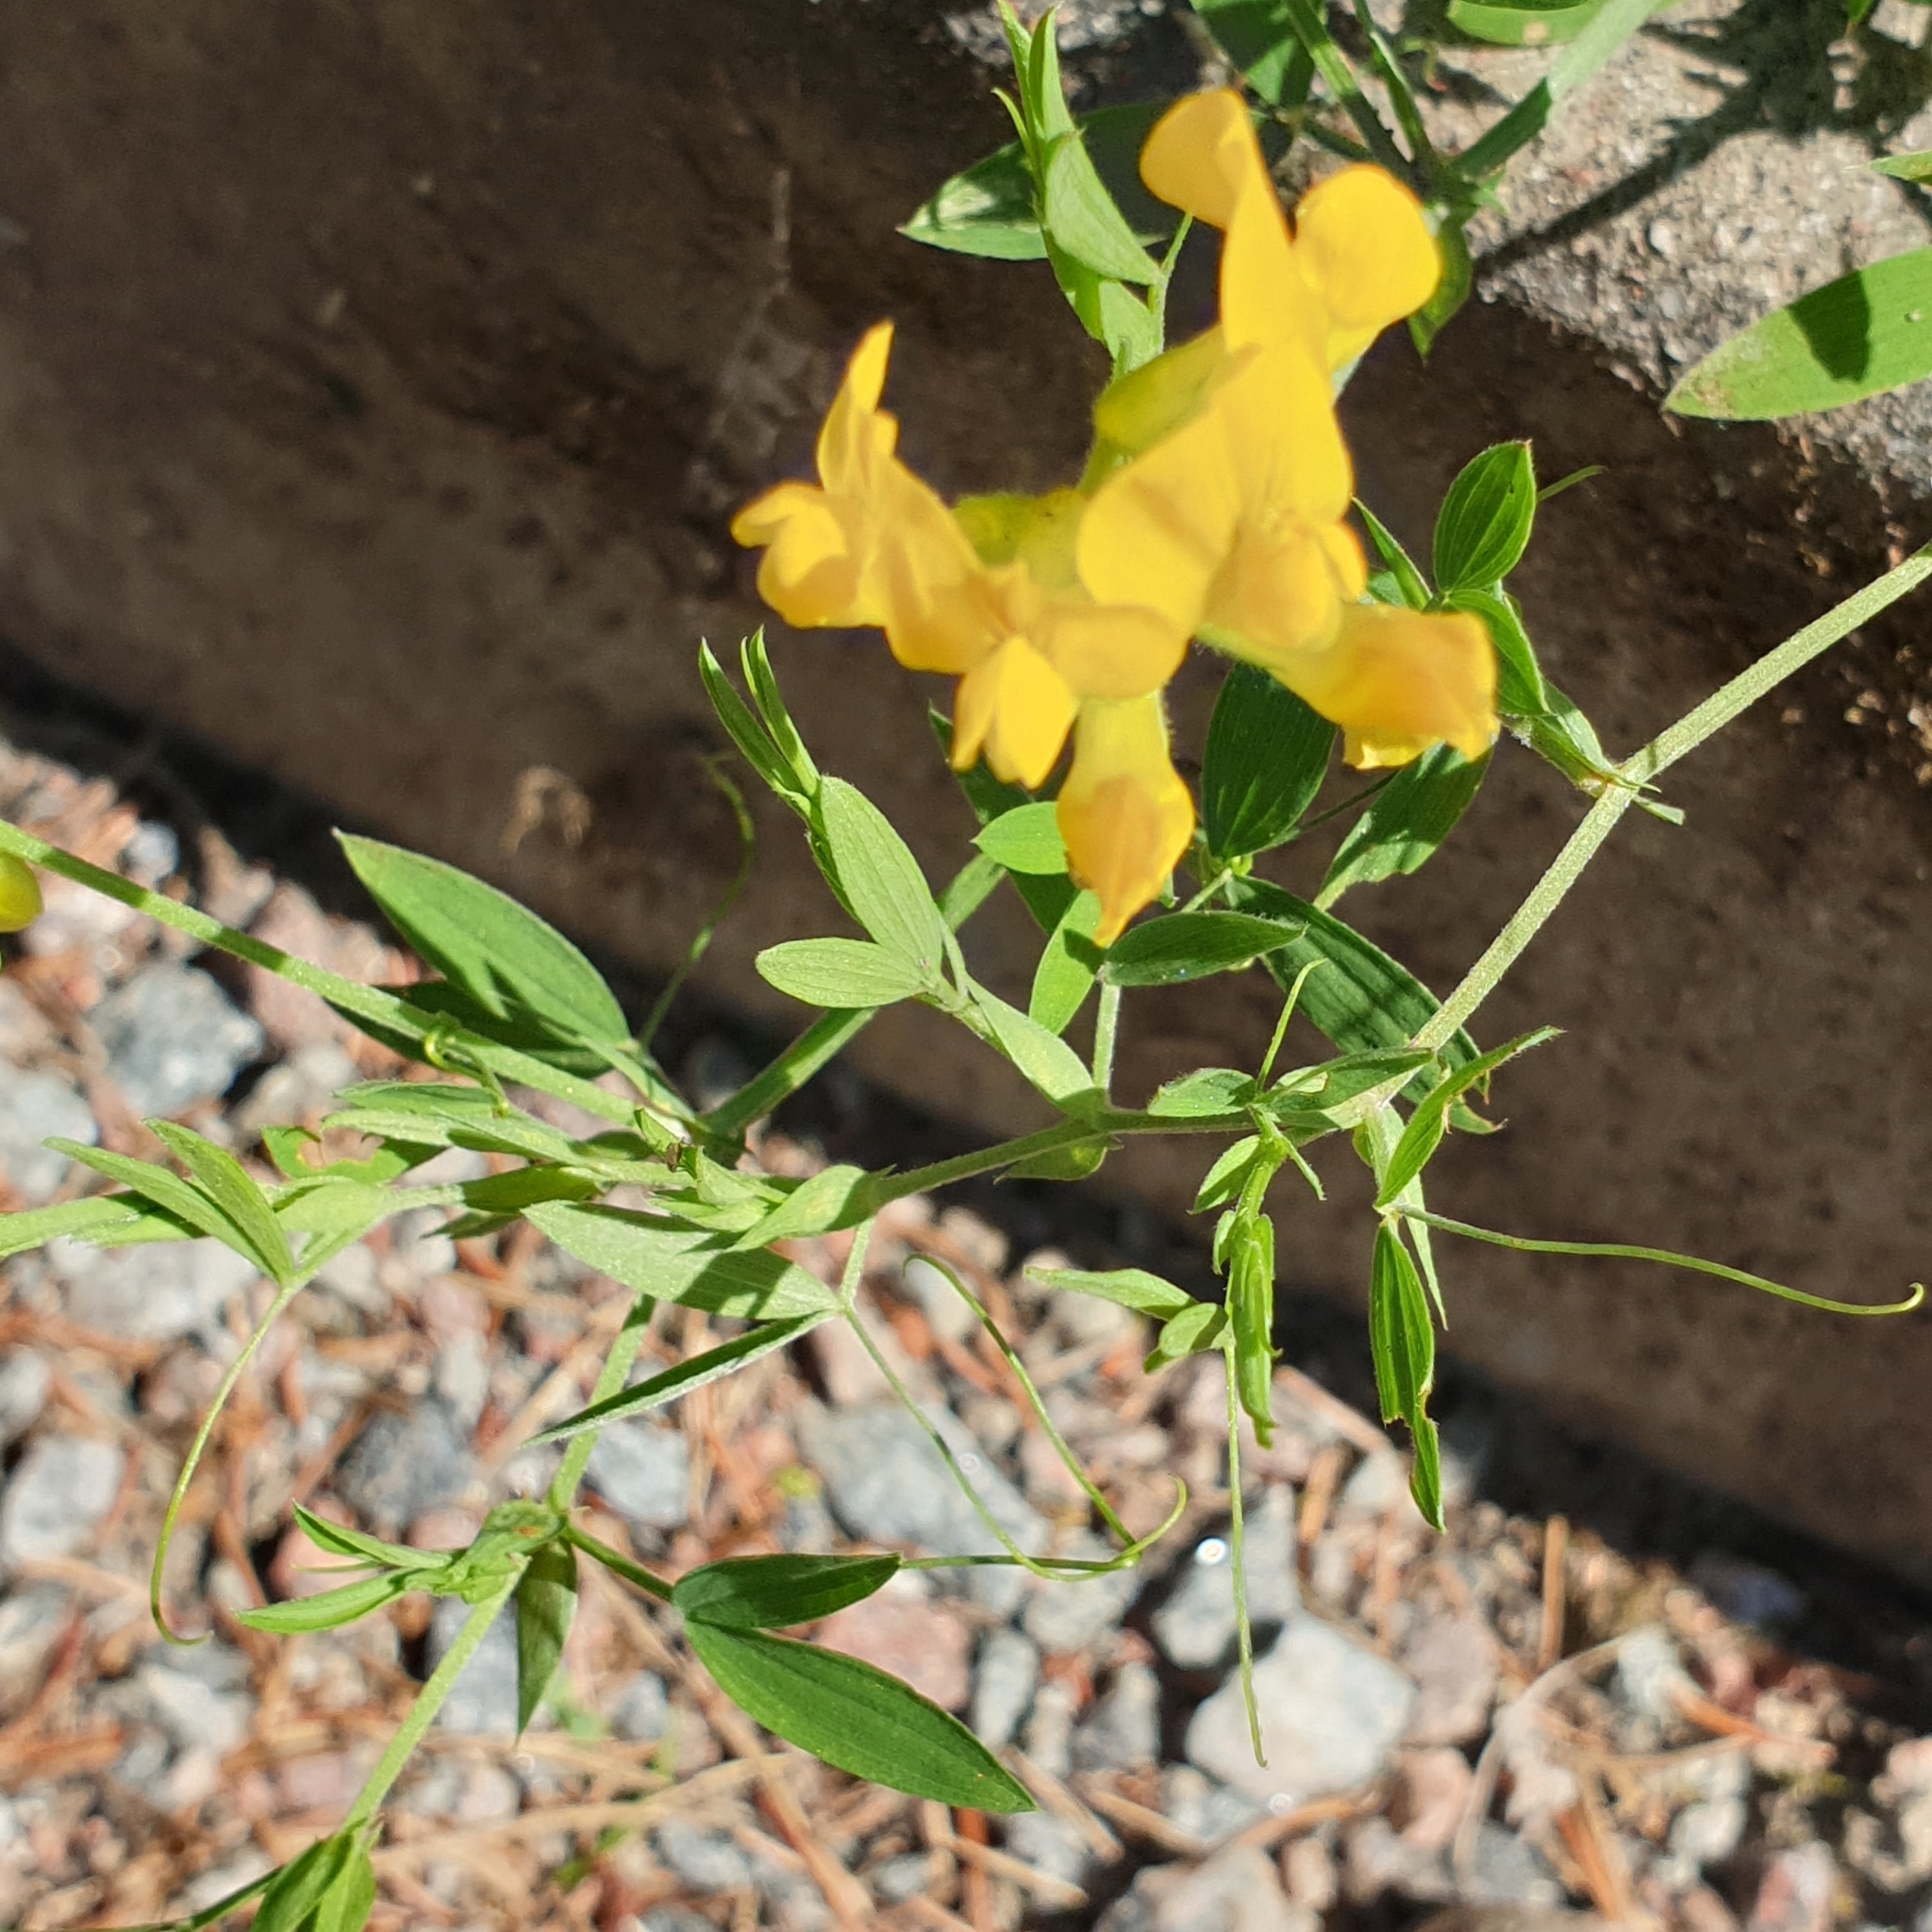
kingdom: Plantae
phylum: Tracheophyta
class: Magnoliopsida
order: Fabales
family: Fabaceae
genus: Lathyrus
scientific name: Lathyrus pratensis
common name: Meadow vetchling
